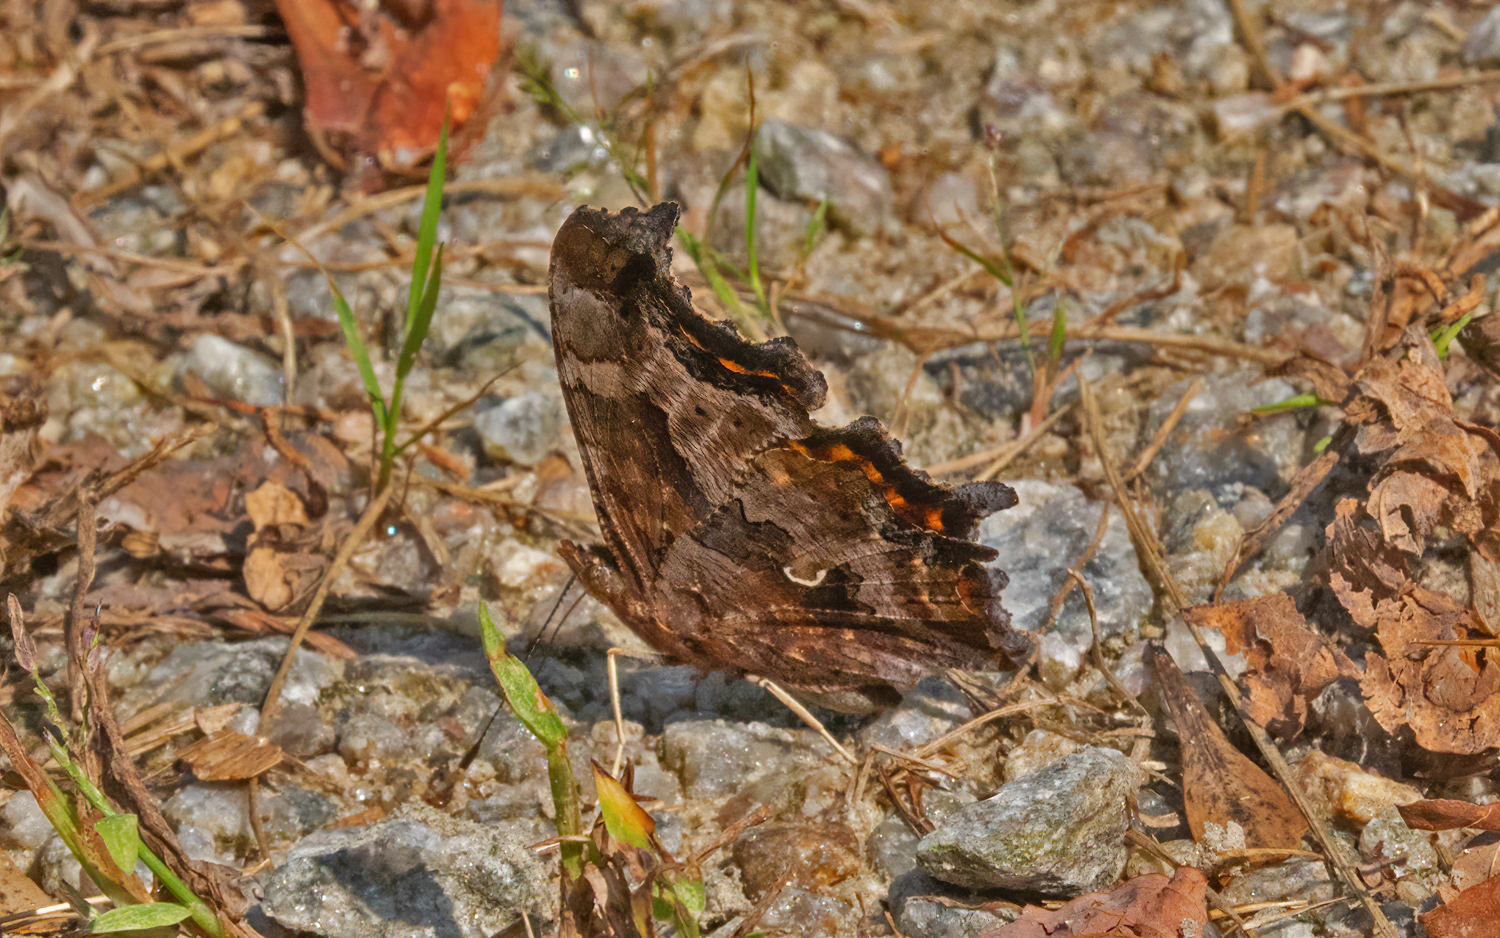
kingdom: Animalia
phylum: Arthropoda
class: Insecta
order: Lepidoptera
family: Nymphalidae
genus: Polygonia
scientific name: Polygonia comma
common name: Eastern comma
